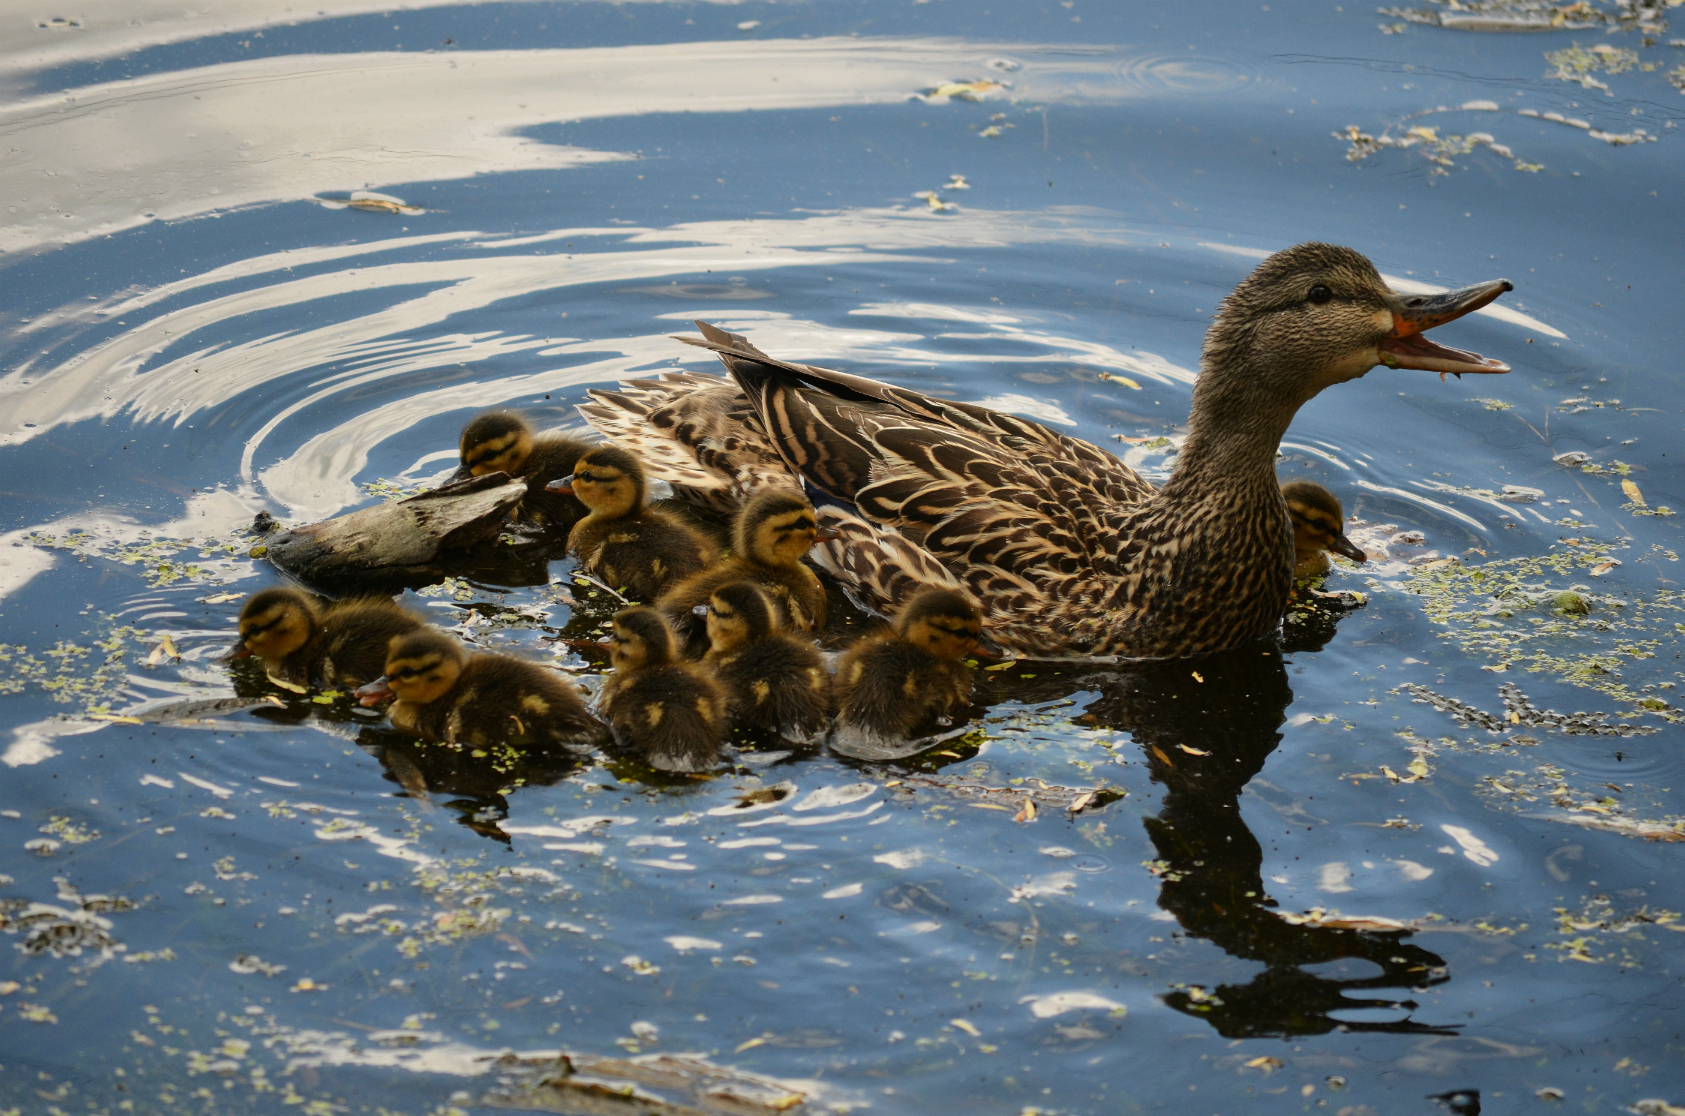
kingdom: Animalia
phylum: Chordata
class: Aves
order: Anseriformes
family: Anatidae
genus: Anas
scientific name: Anas platyrhynchos
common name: Mallard
